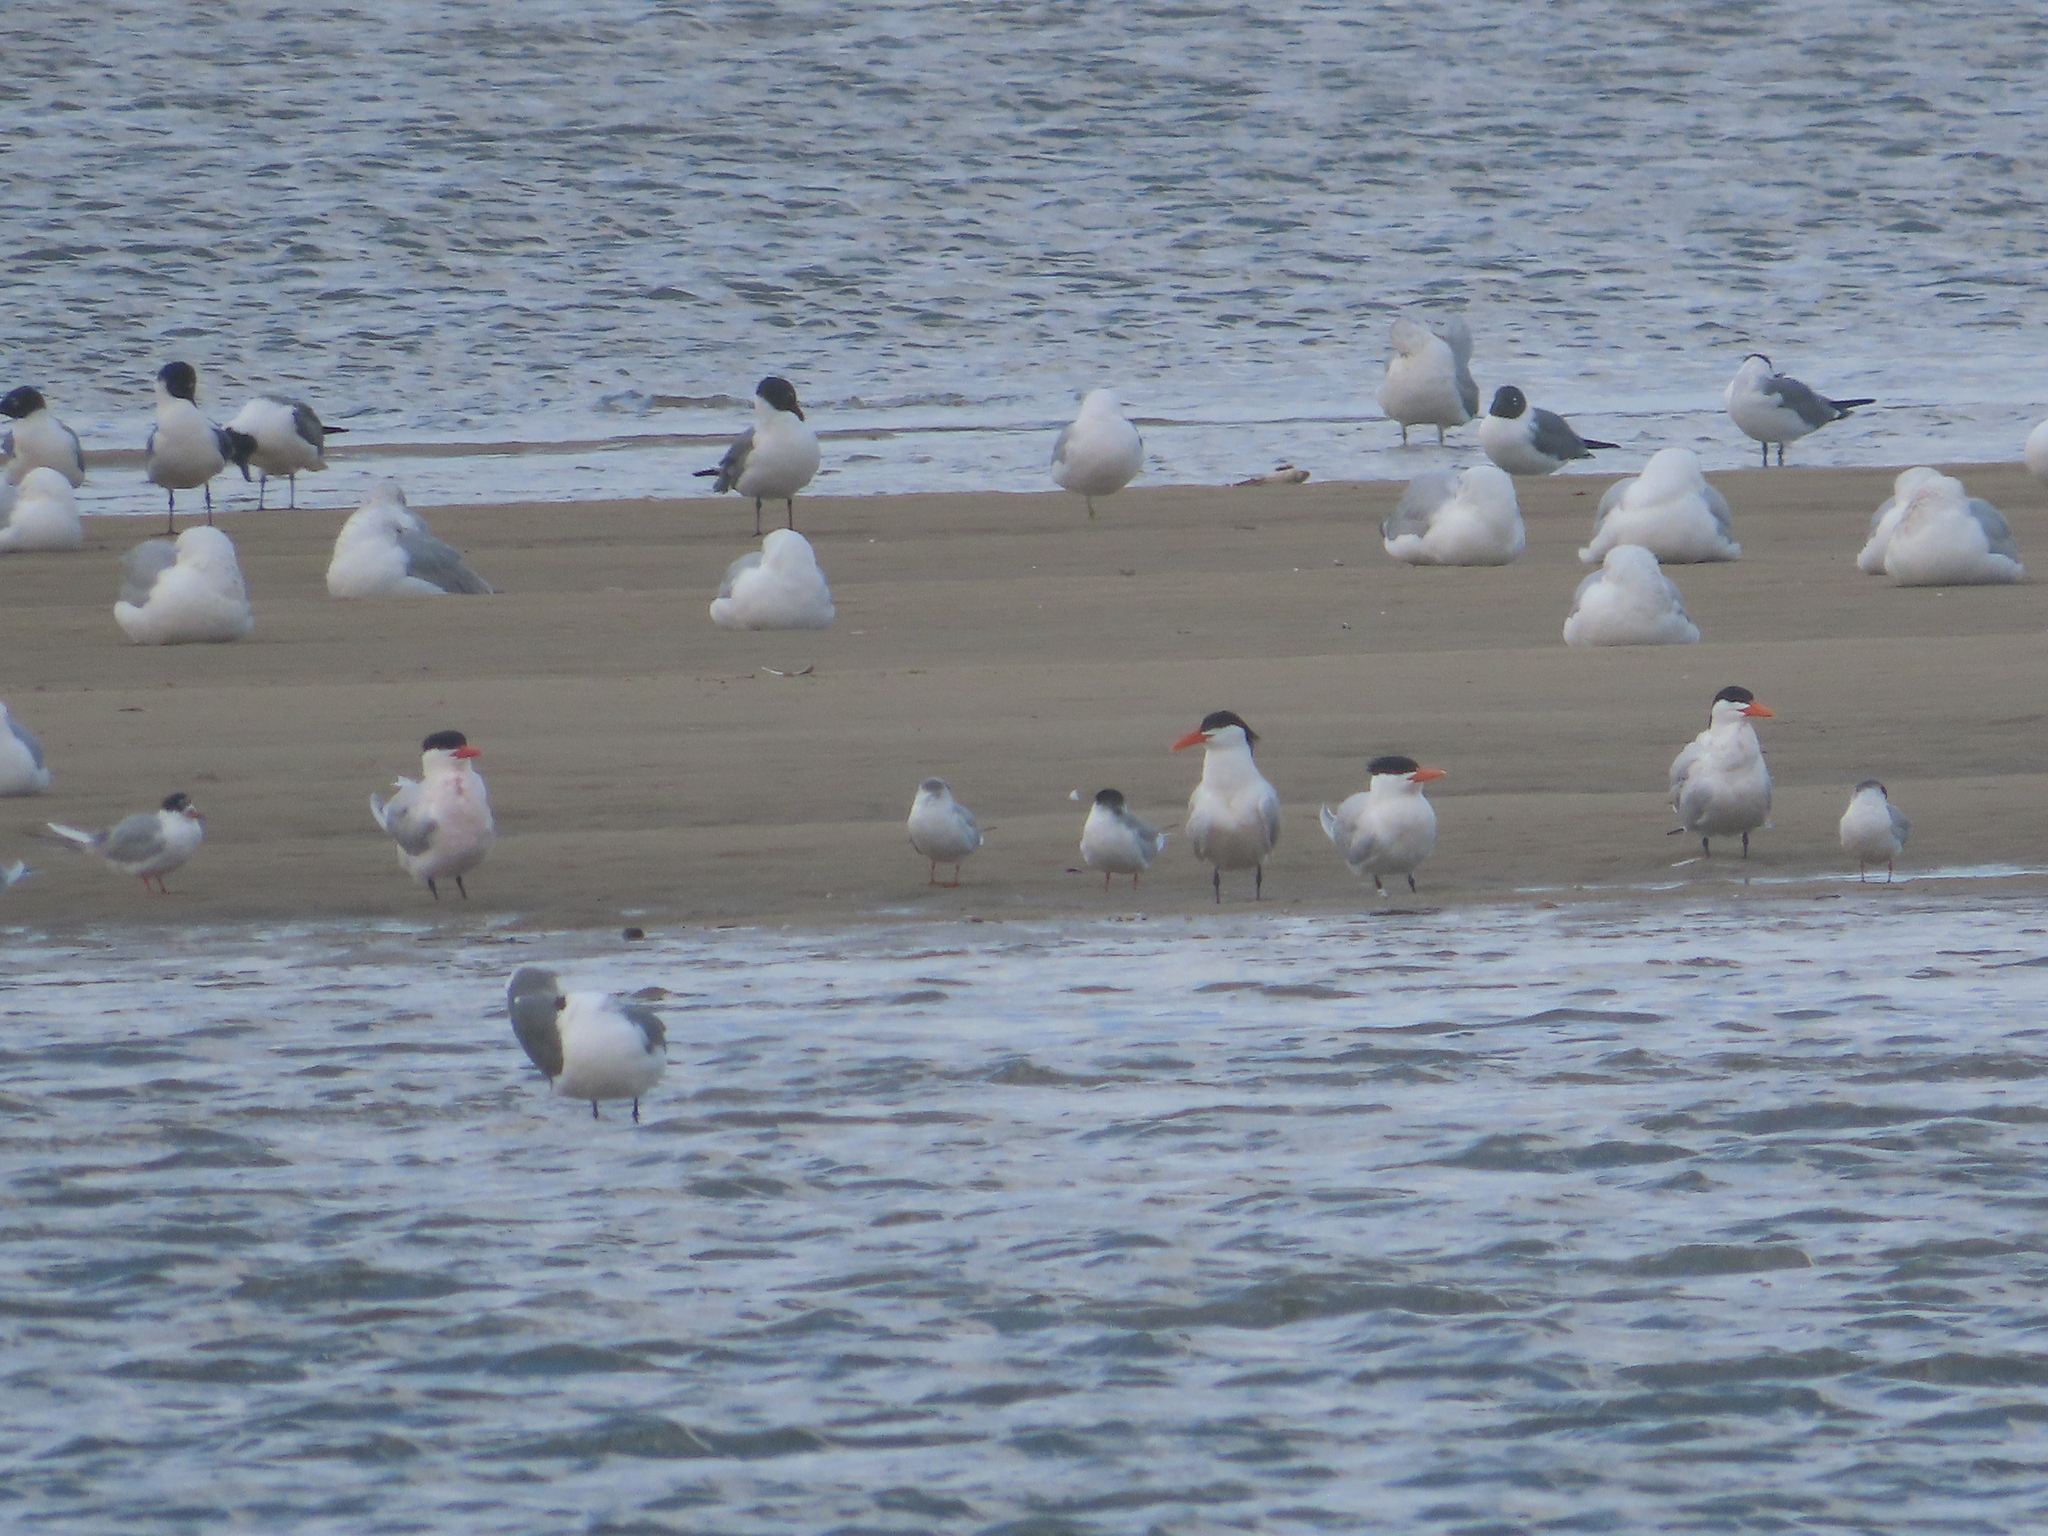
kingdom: Animalia
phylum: Chordata
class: Aves
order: Charadriiformes
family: Laridae
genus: Leucophaeus
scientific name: Leucophaeus atricilla
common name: Laughing gull
